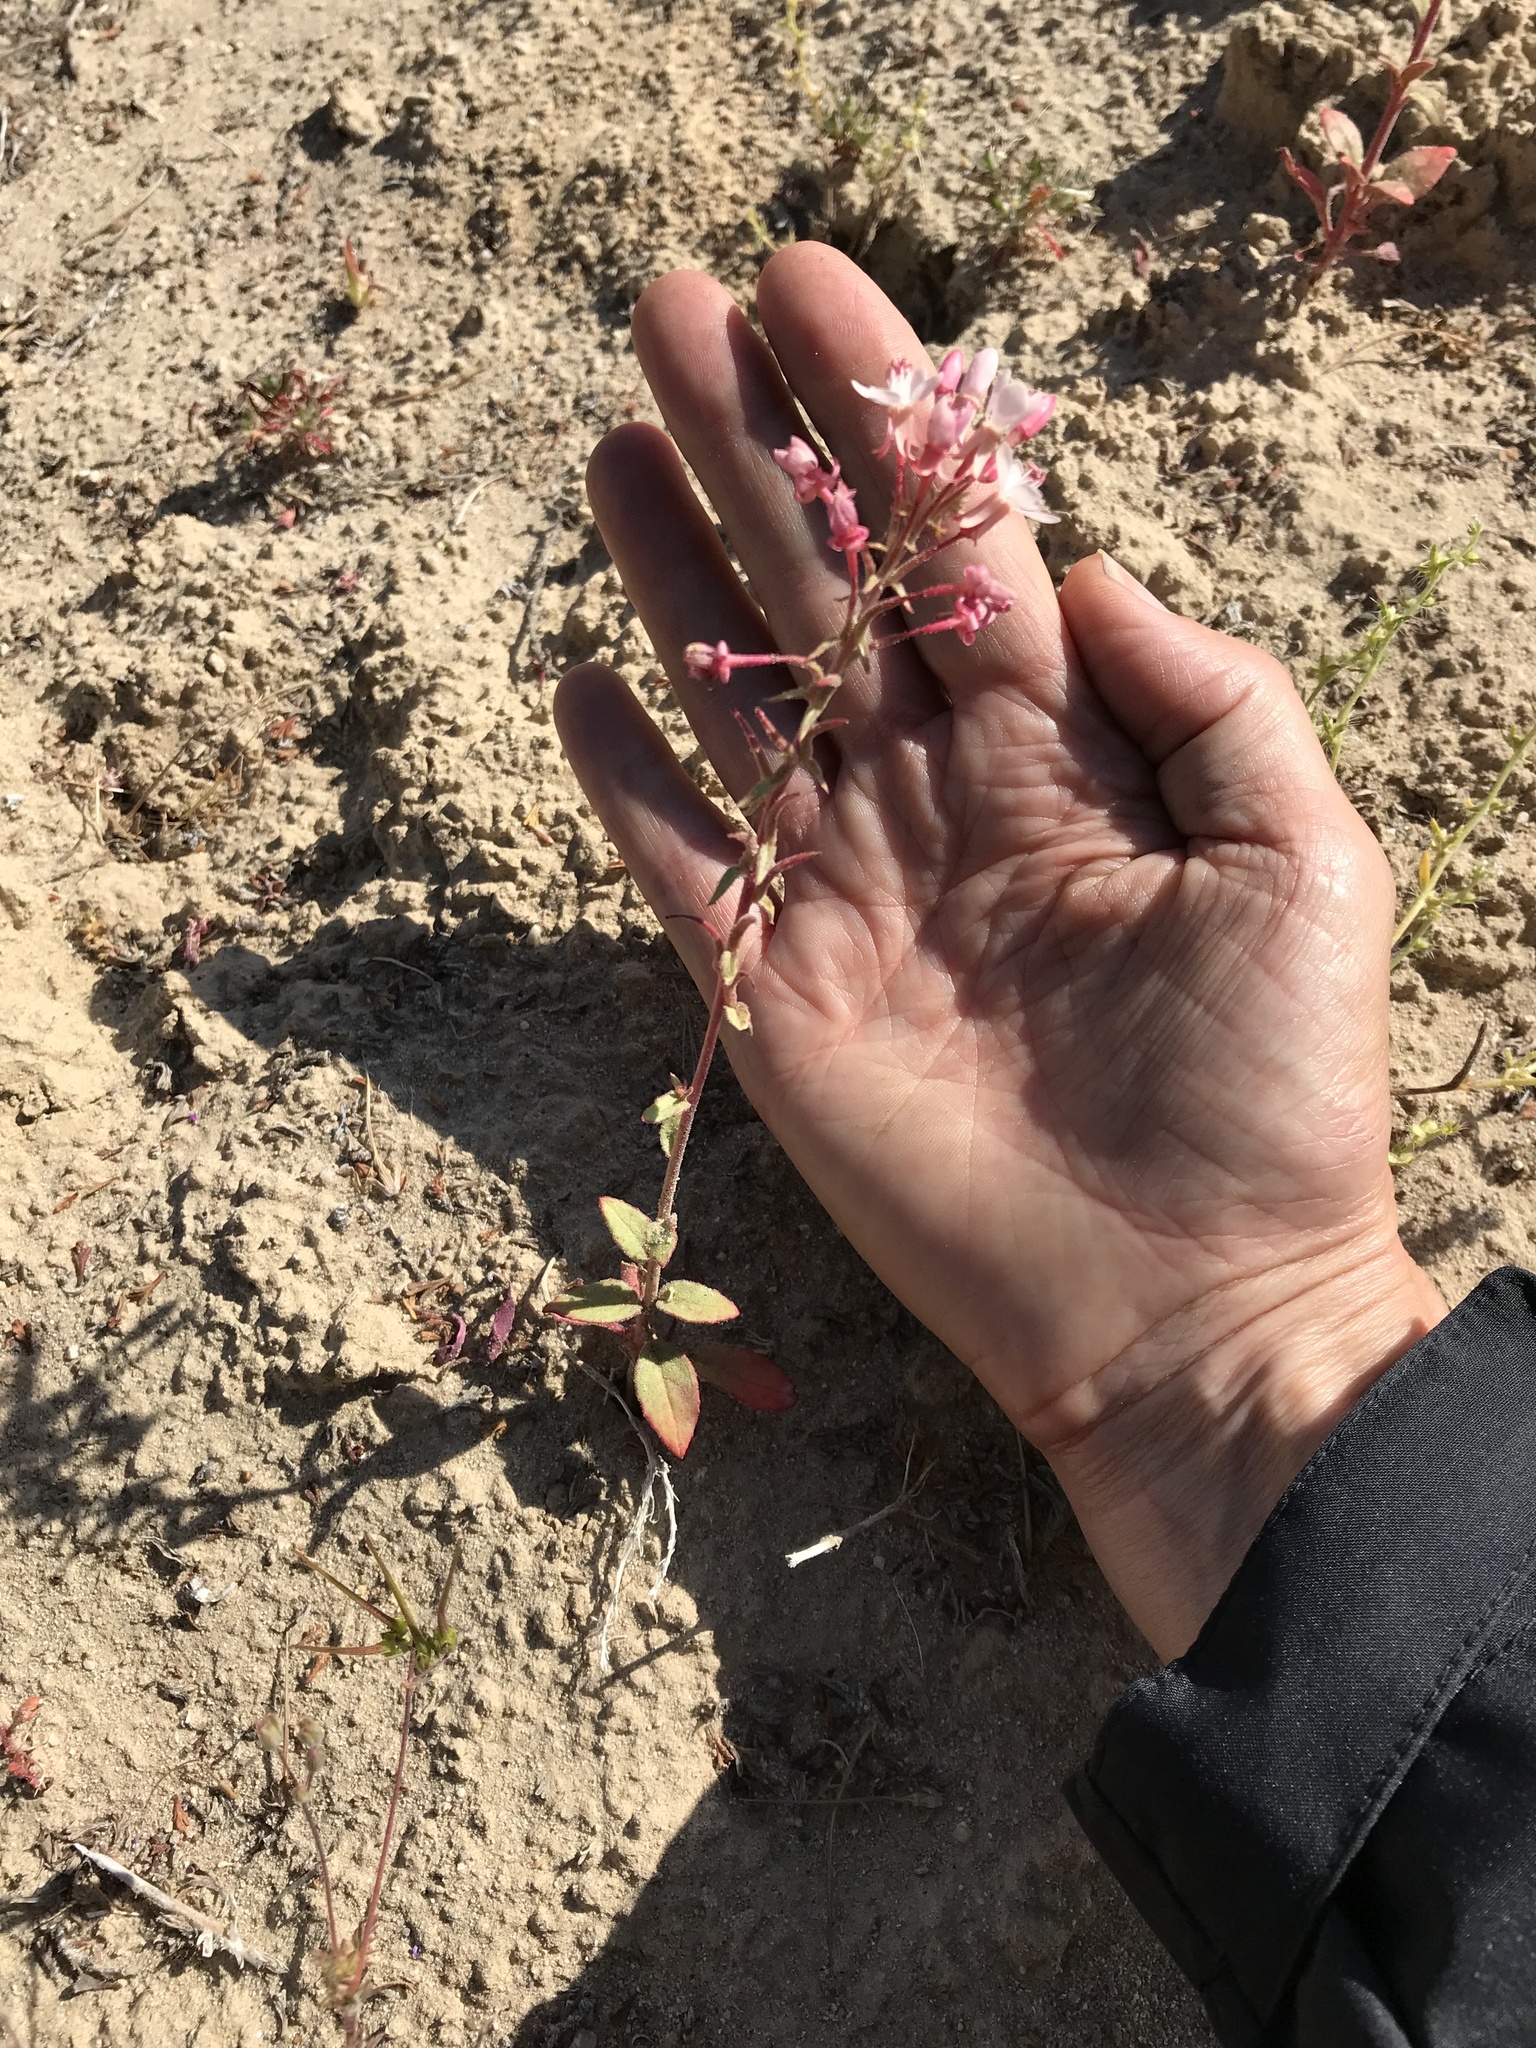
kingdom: Plantae
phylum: Tracheophyta
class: Magnoliopsida
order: Myrtales
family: Onagraceae
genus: Eremothera
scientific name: Eremothera boothii
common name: Booth's evening primrose
